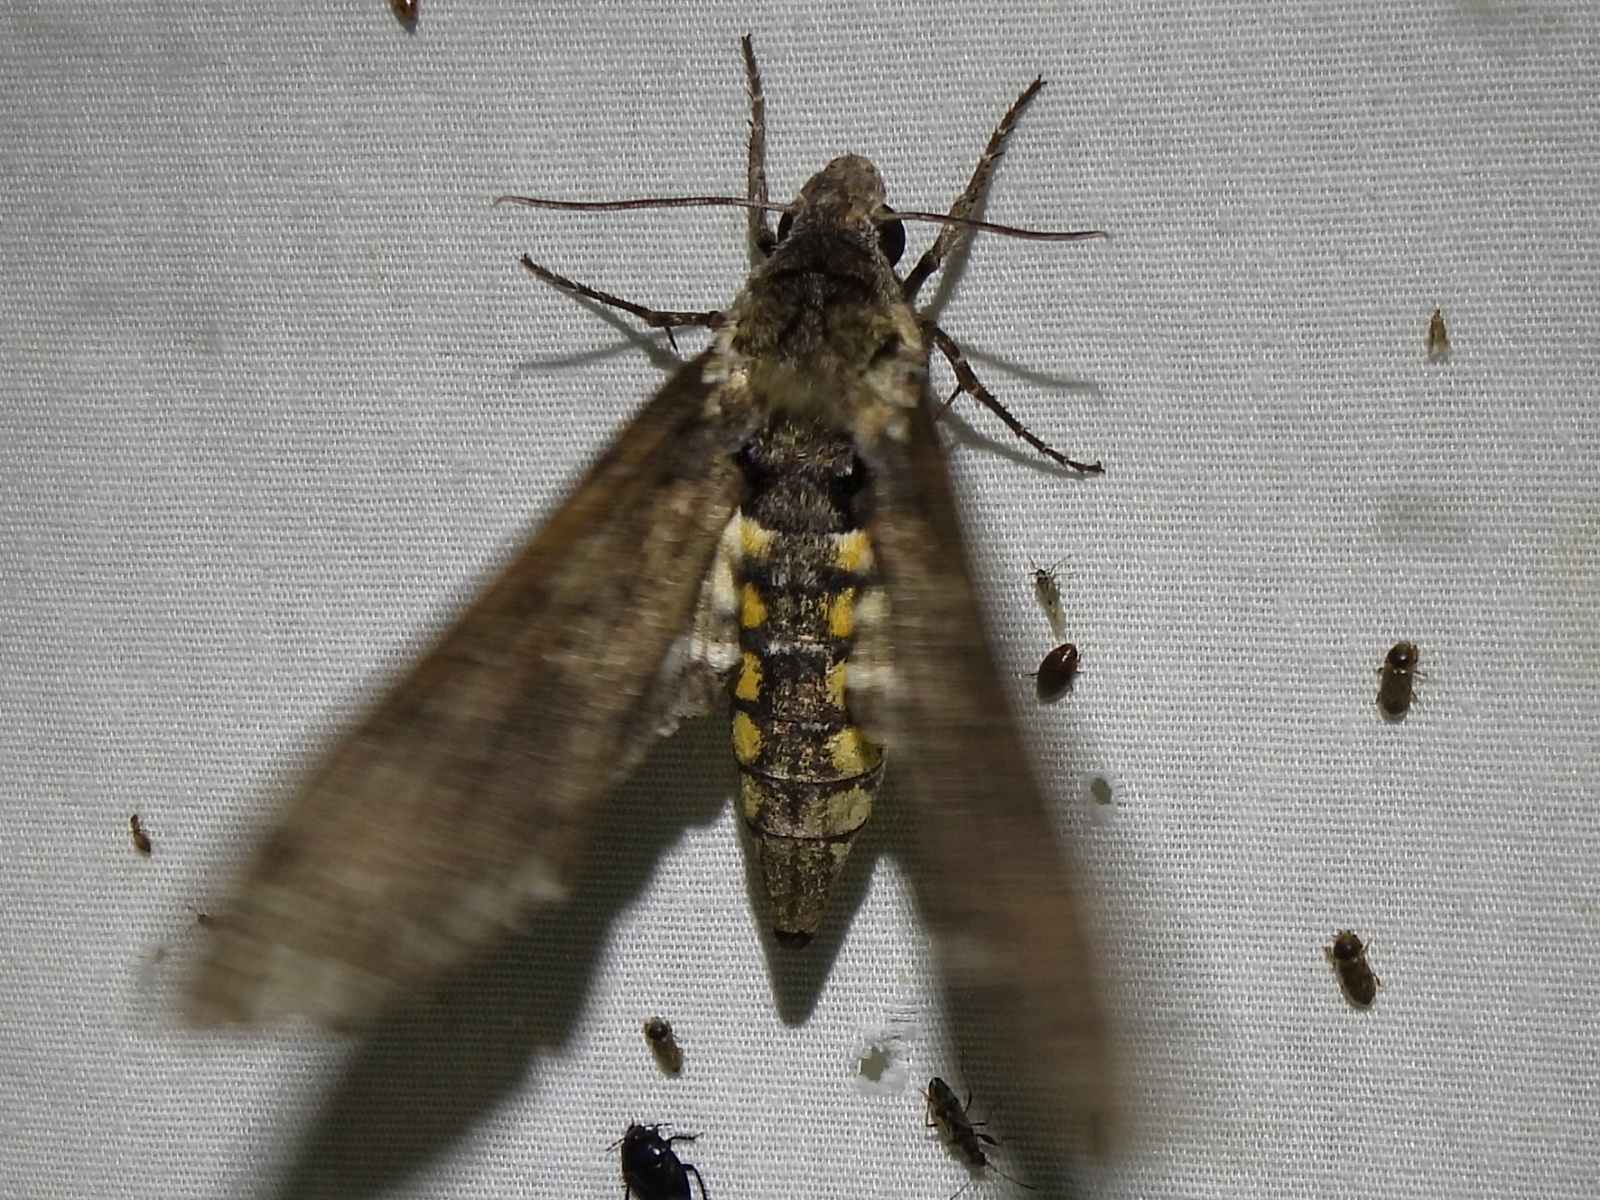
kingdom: Animalia
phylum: Arthropoda
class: Insecta
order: Lepidoptera
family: Sphingidae
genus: Manduca
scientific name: Manduca sexta
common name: Carolina sphinx
